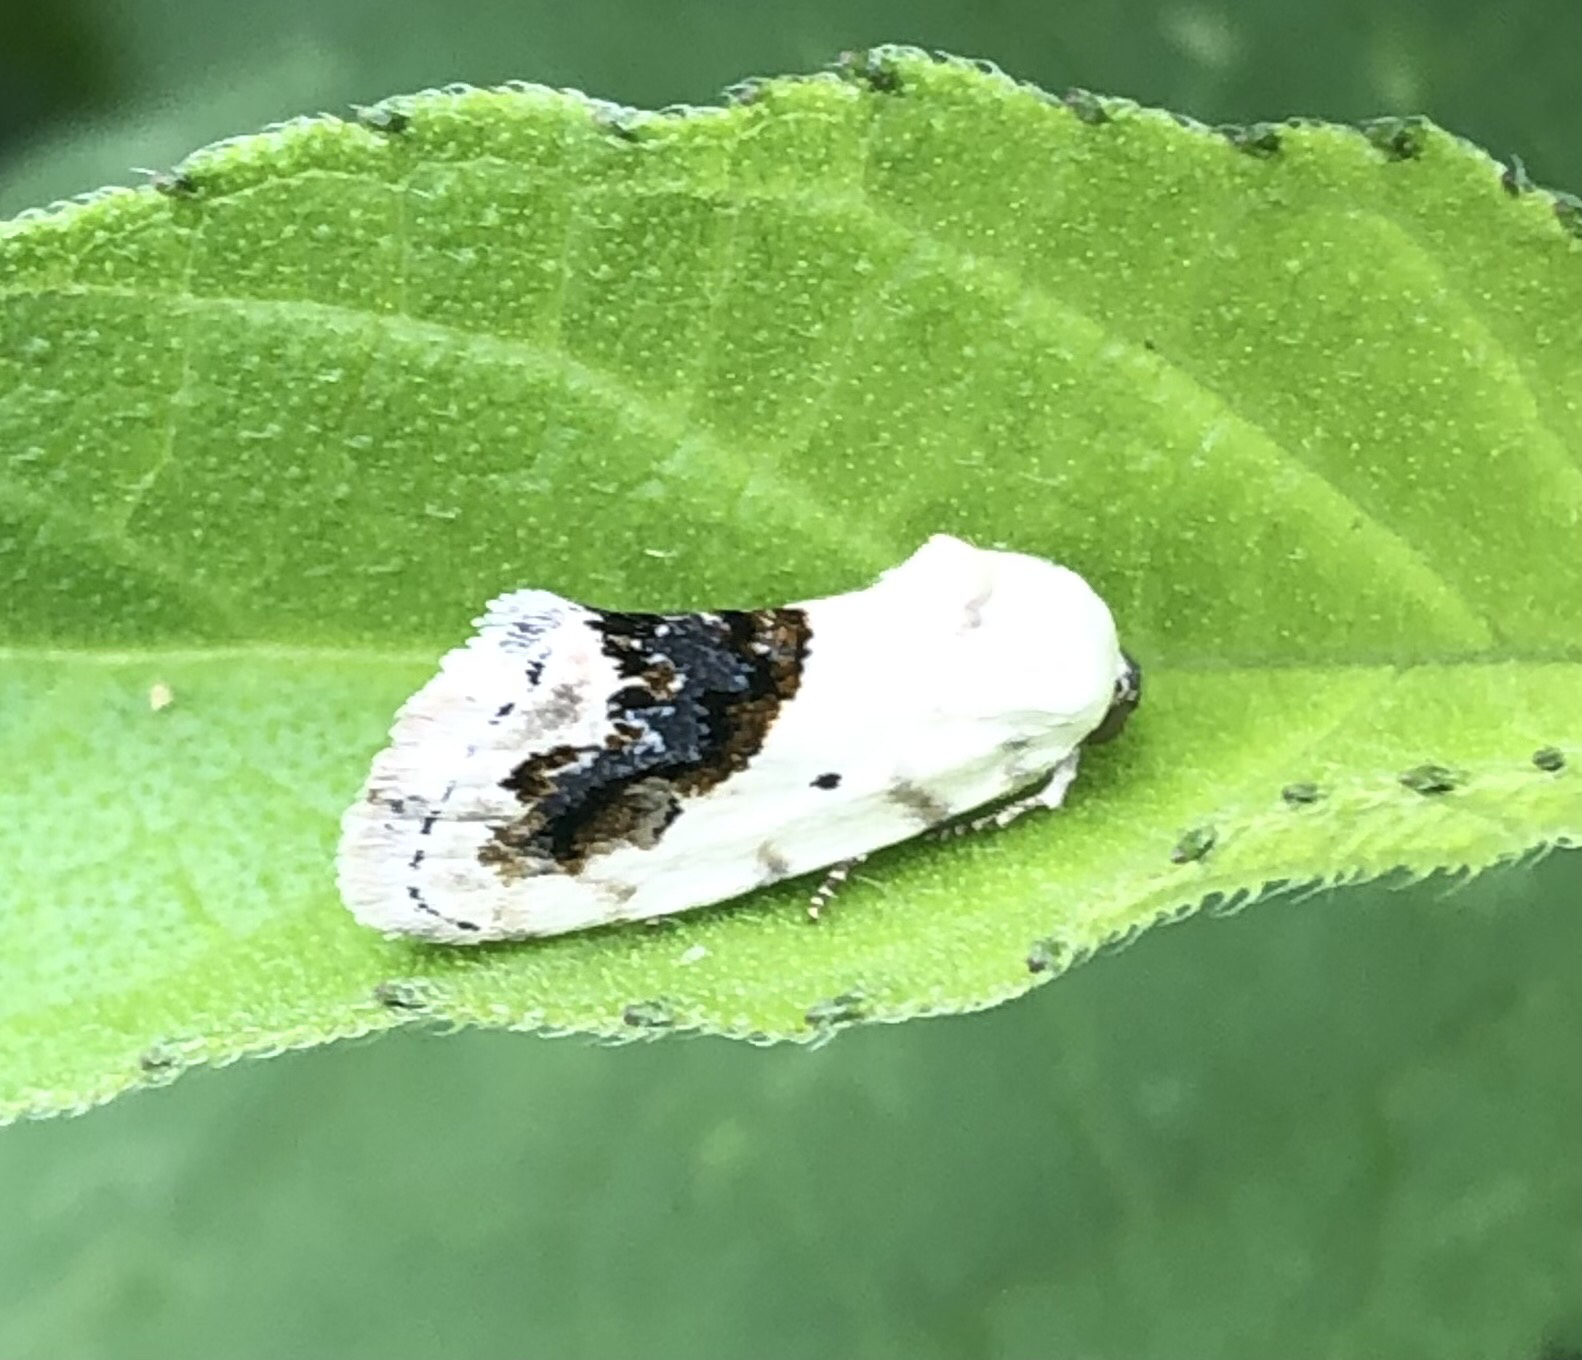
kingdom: Animalia
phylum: Arthropoda
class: Insecta
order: Lepidoptera
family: Noctuidae
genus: Acontia
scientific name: Acontia erastrioides
